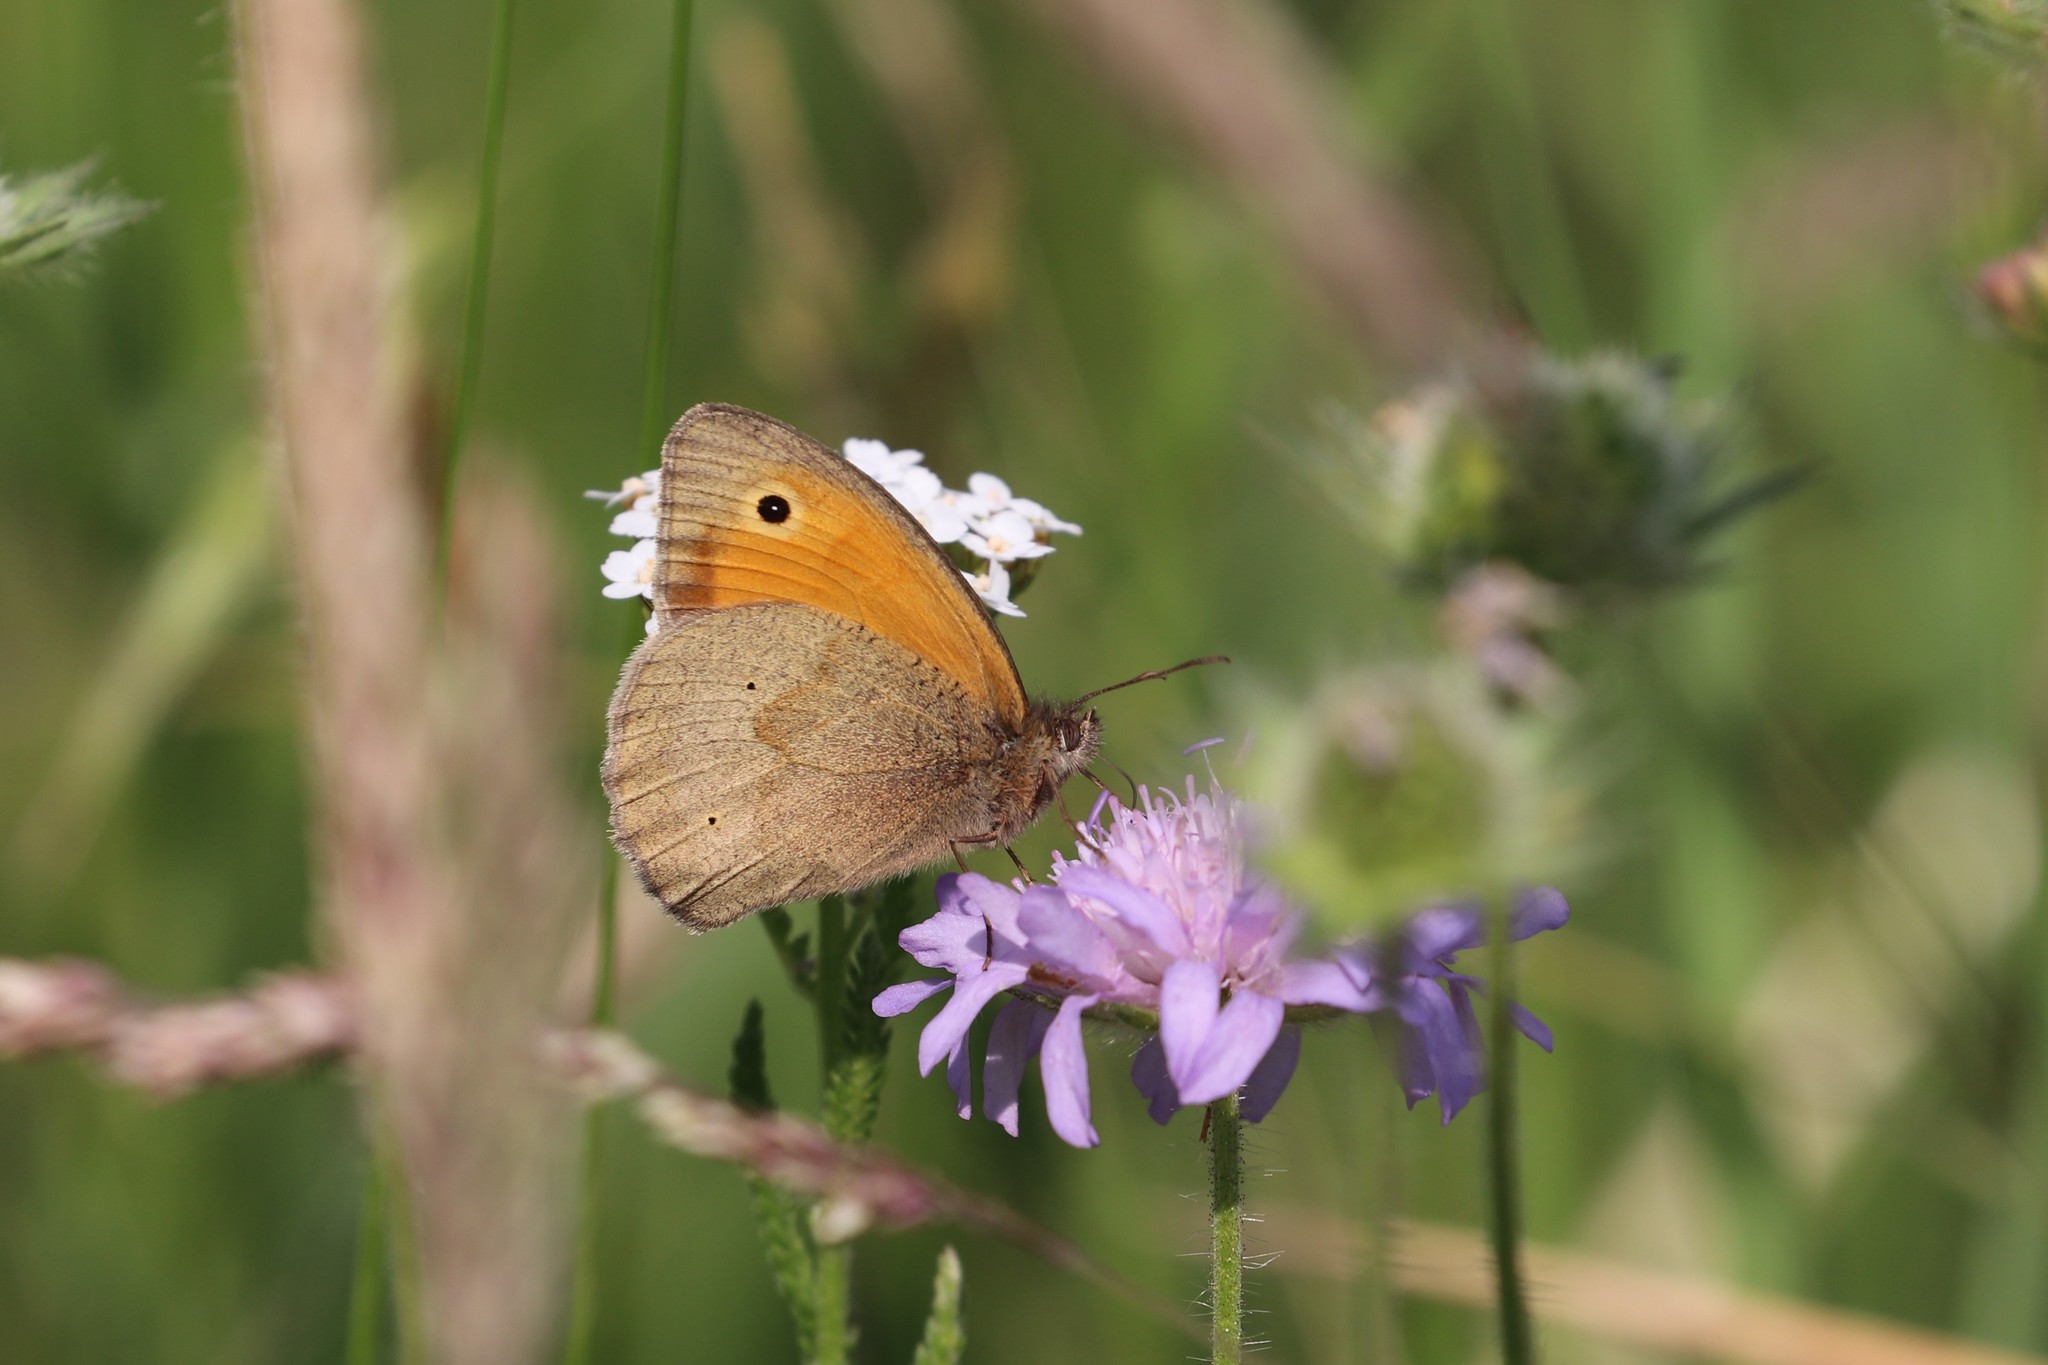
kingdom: Animalia
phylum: Arthropoda
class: Insecta
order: Lepidoptera
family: Nymphalidae
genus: Maniola
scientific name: Maniola jurtina
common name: Meadow brown
